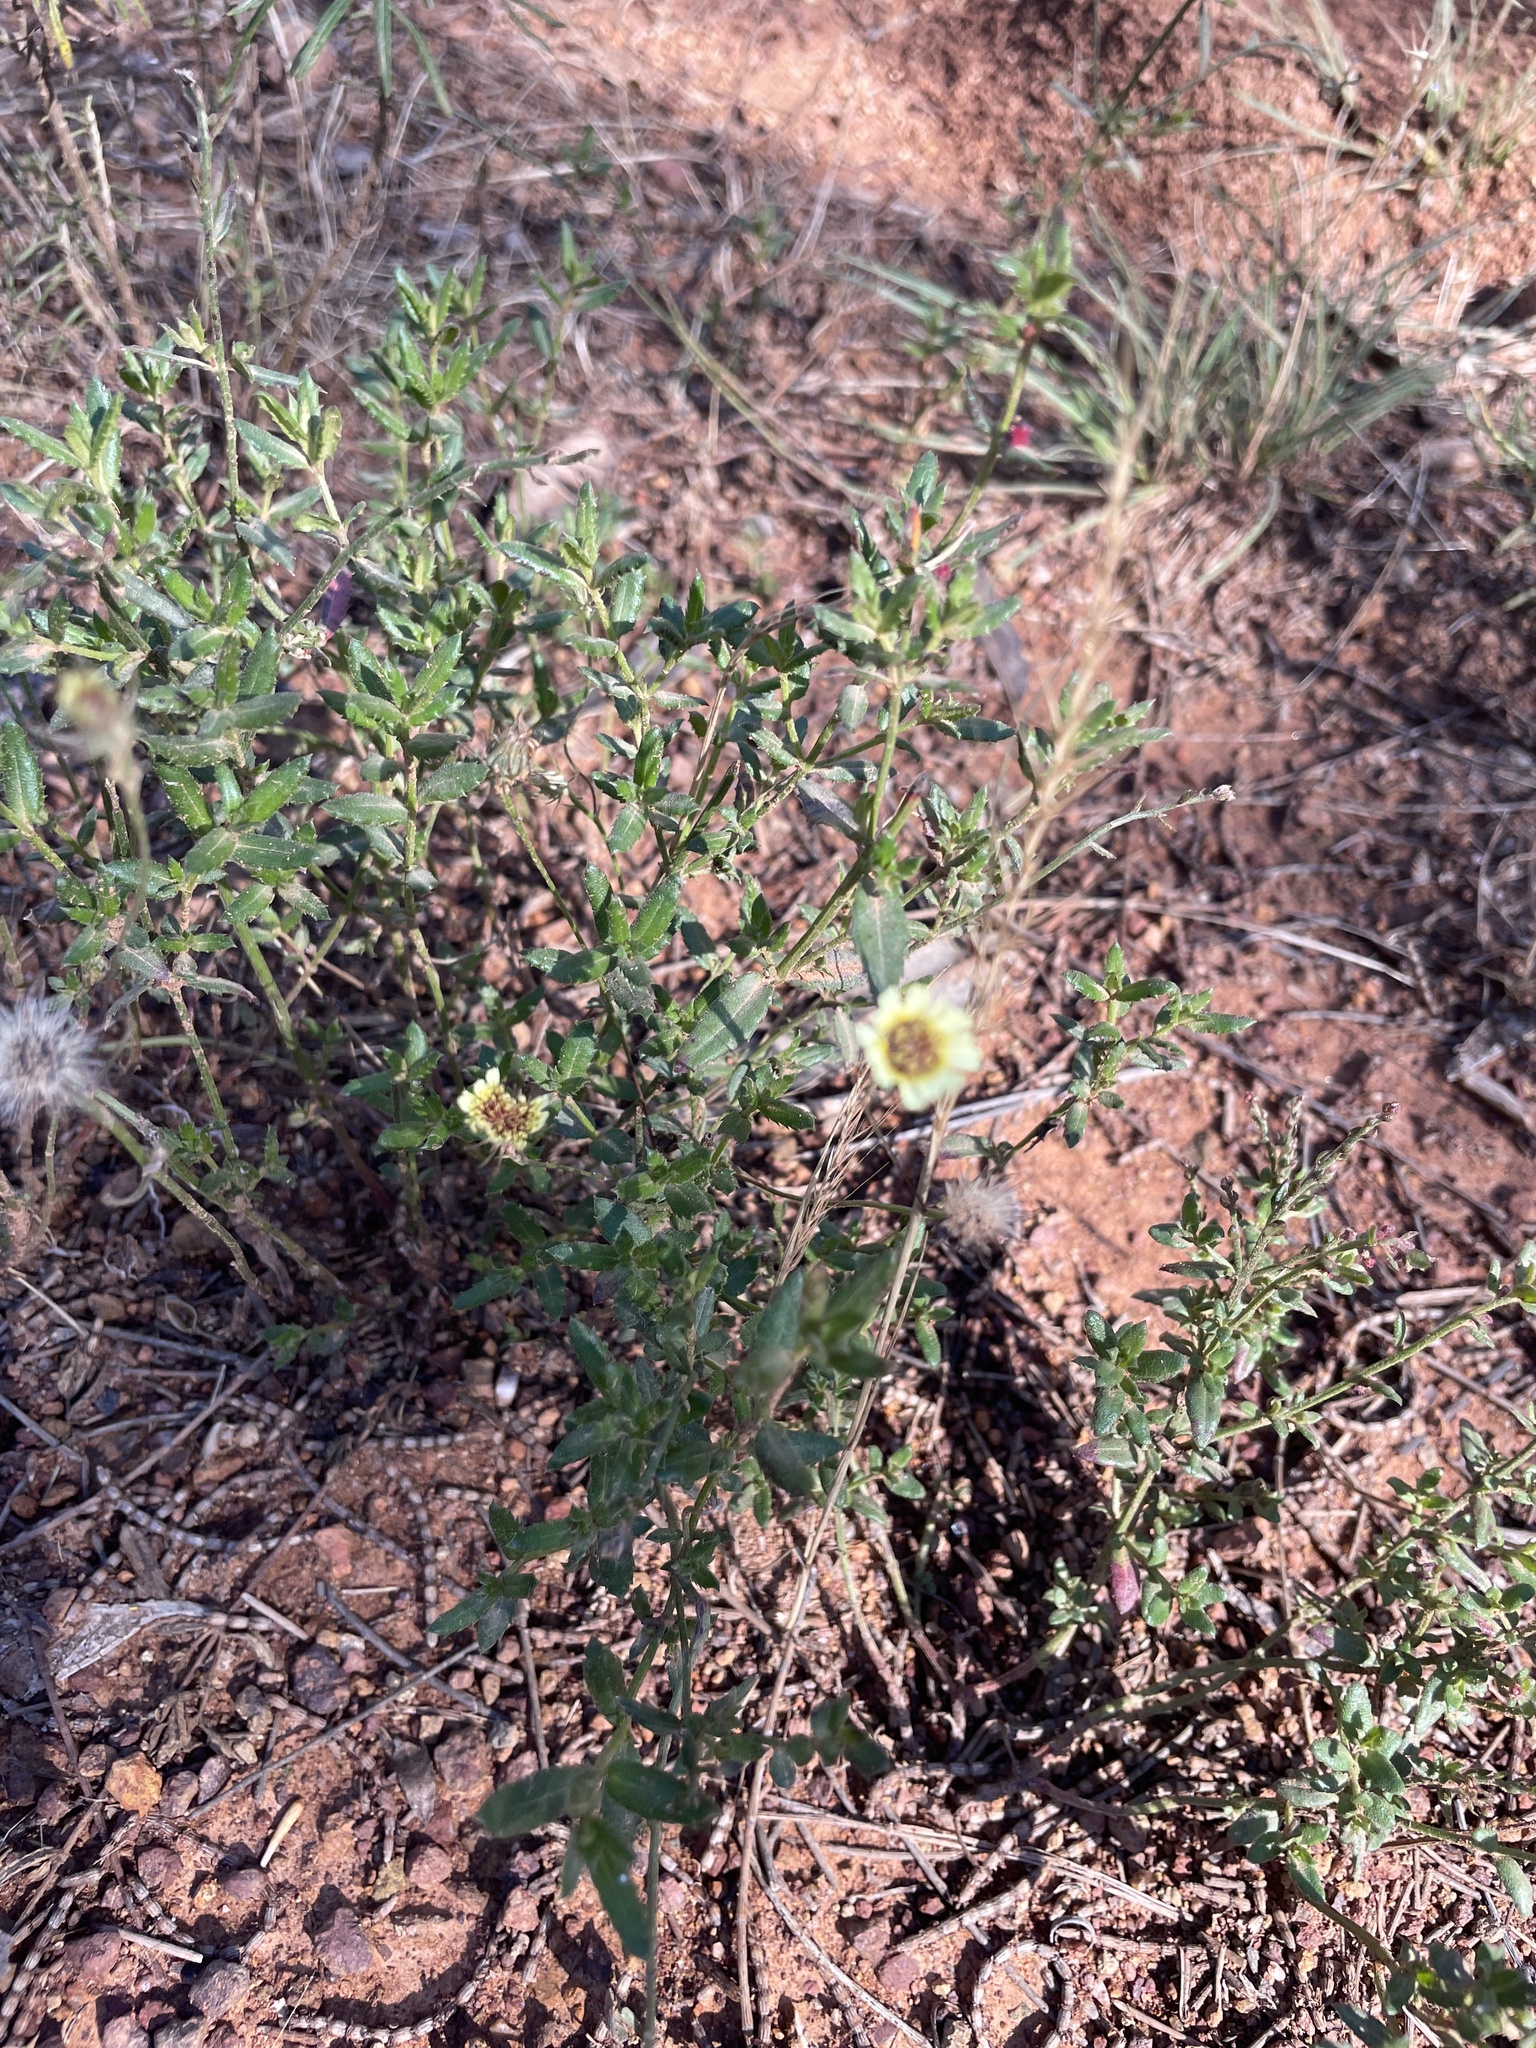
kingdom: Plantae
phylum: Tracheophyta
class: Magnoliopsida
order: Asterales
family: Asteraceae
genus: Tolpis
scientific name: Tolpis barbata
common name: Yellow hawkweed
